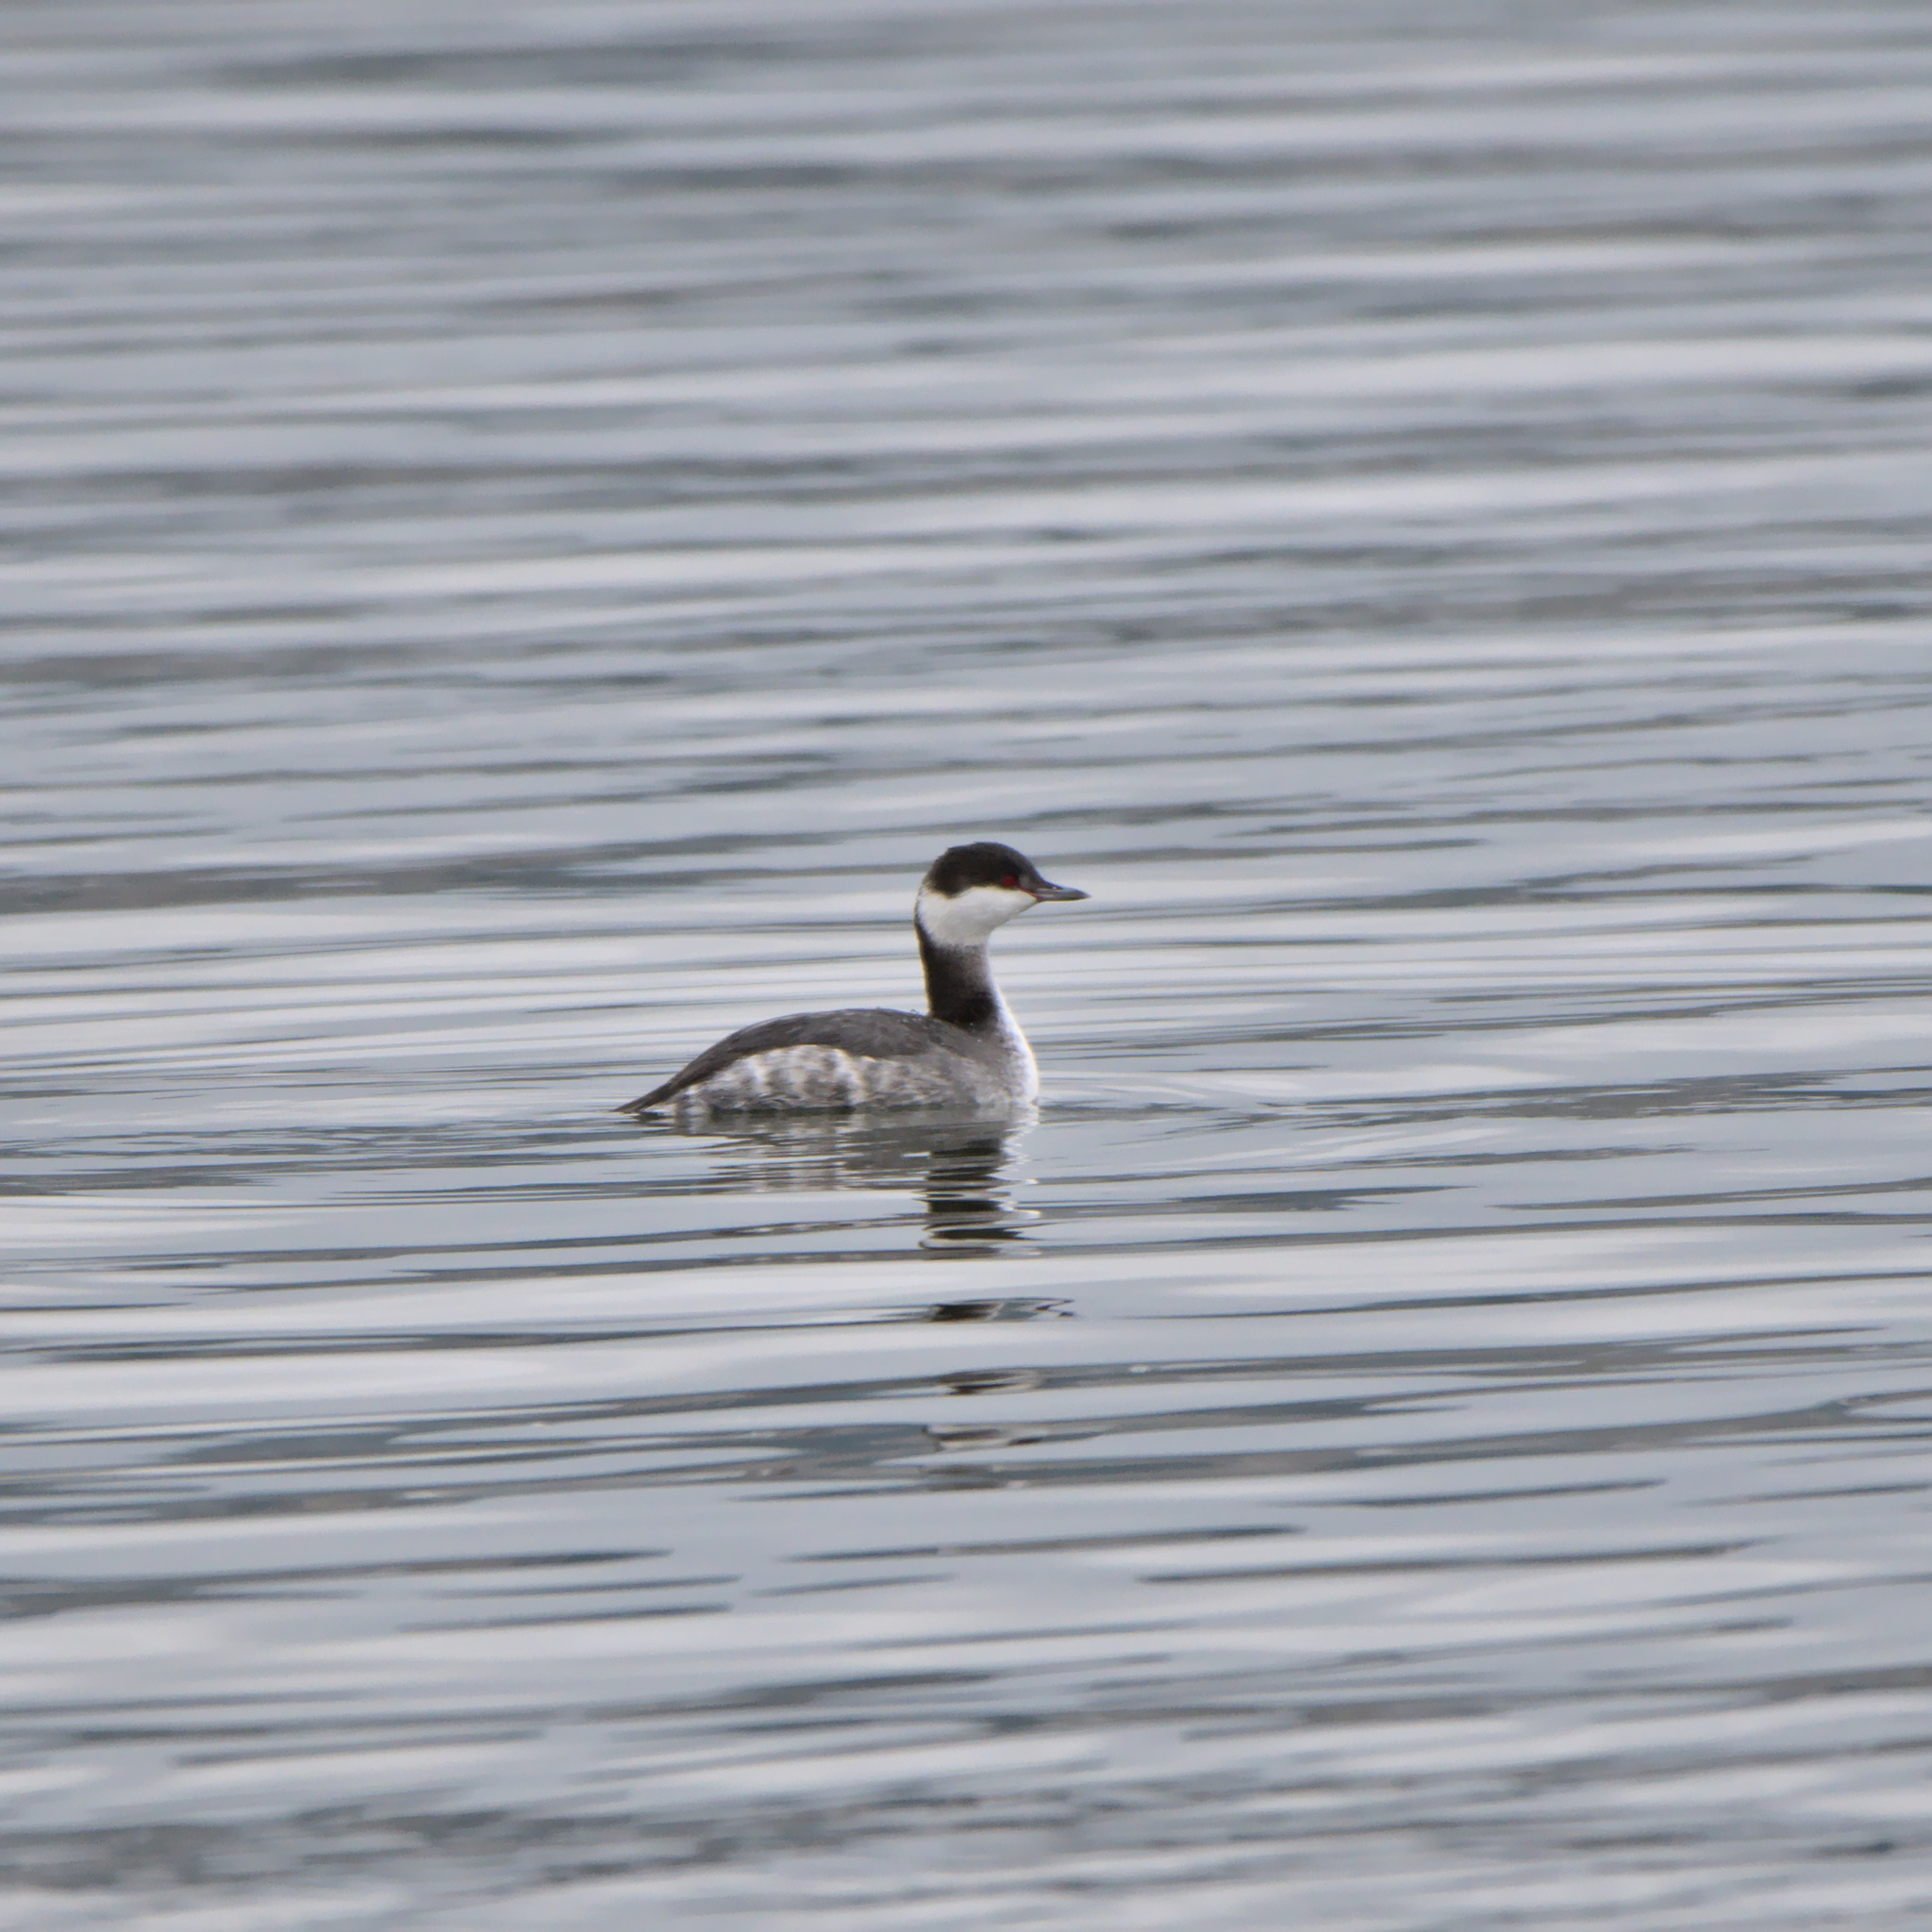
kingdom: Animalia
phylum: Chordata
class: Aves
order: Podicipediformes
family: Podicipedidae
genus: Podiceps
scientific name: Podiceps auritus
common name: Horned grebe
